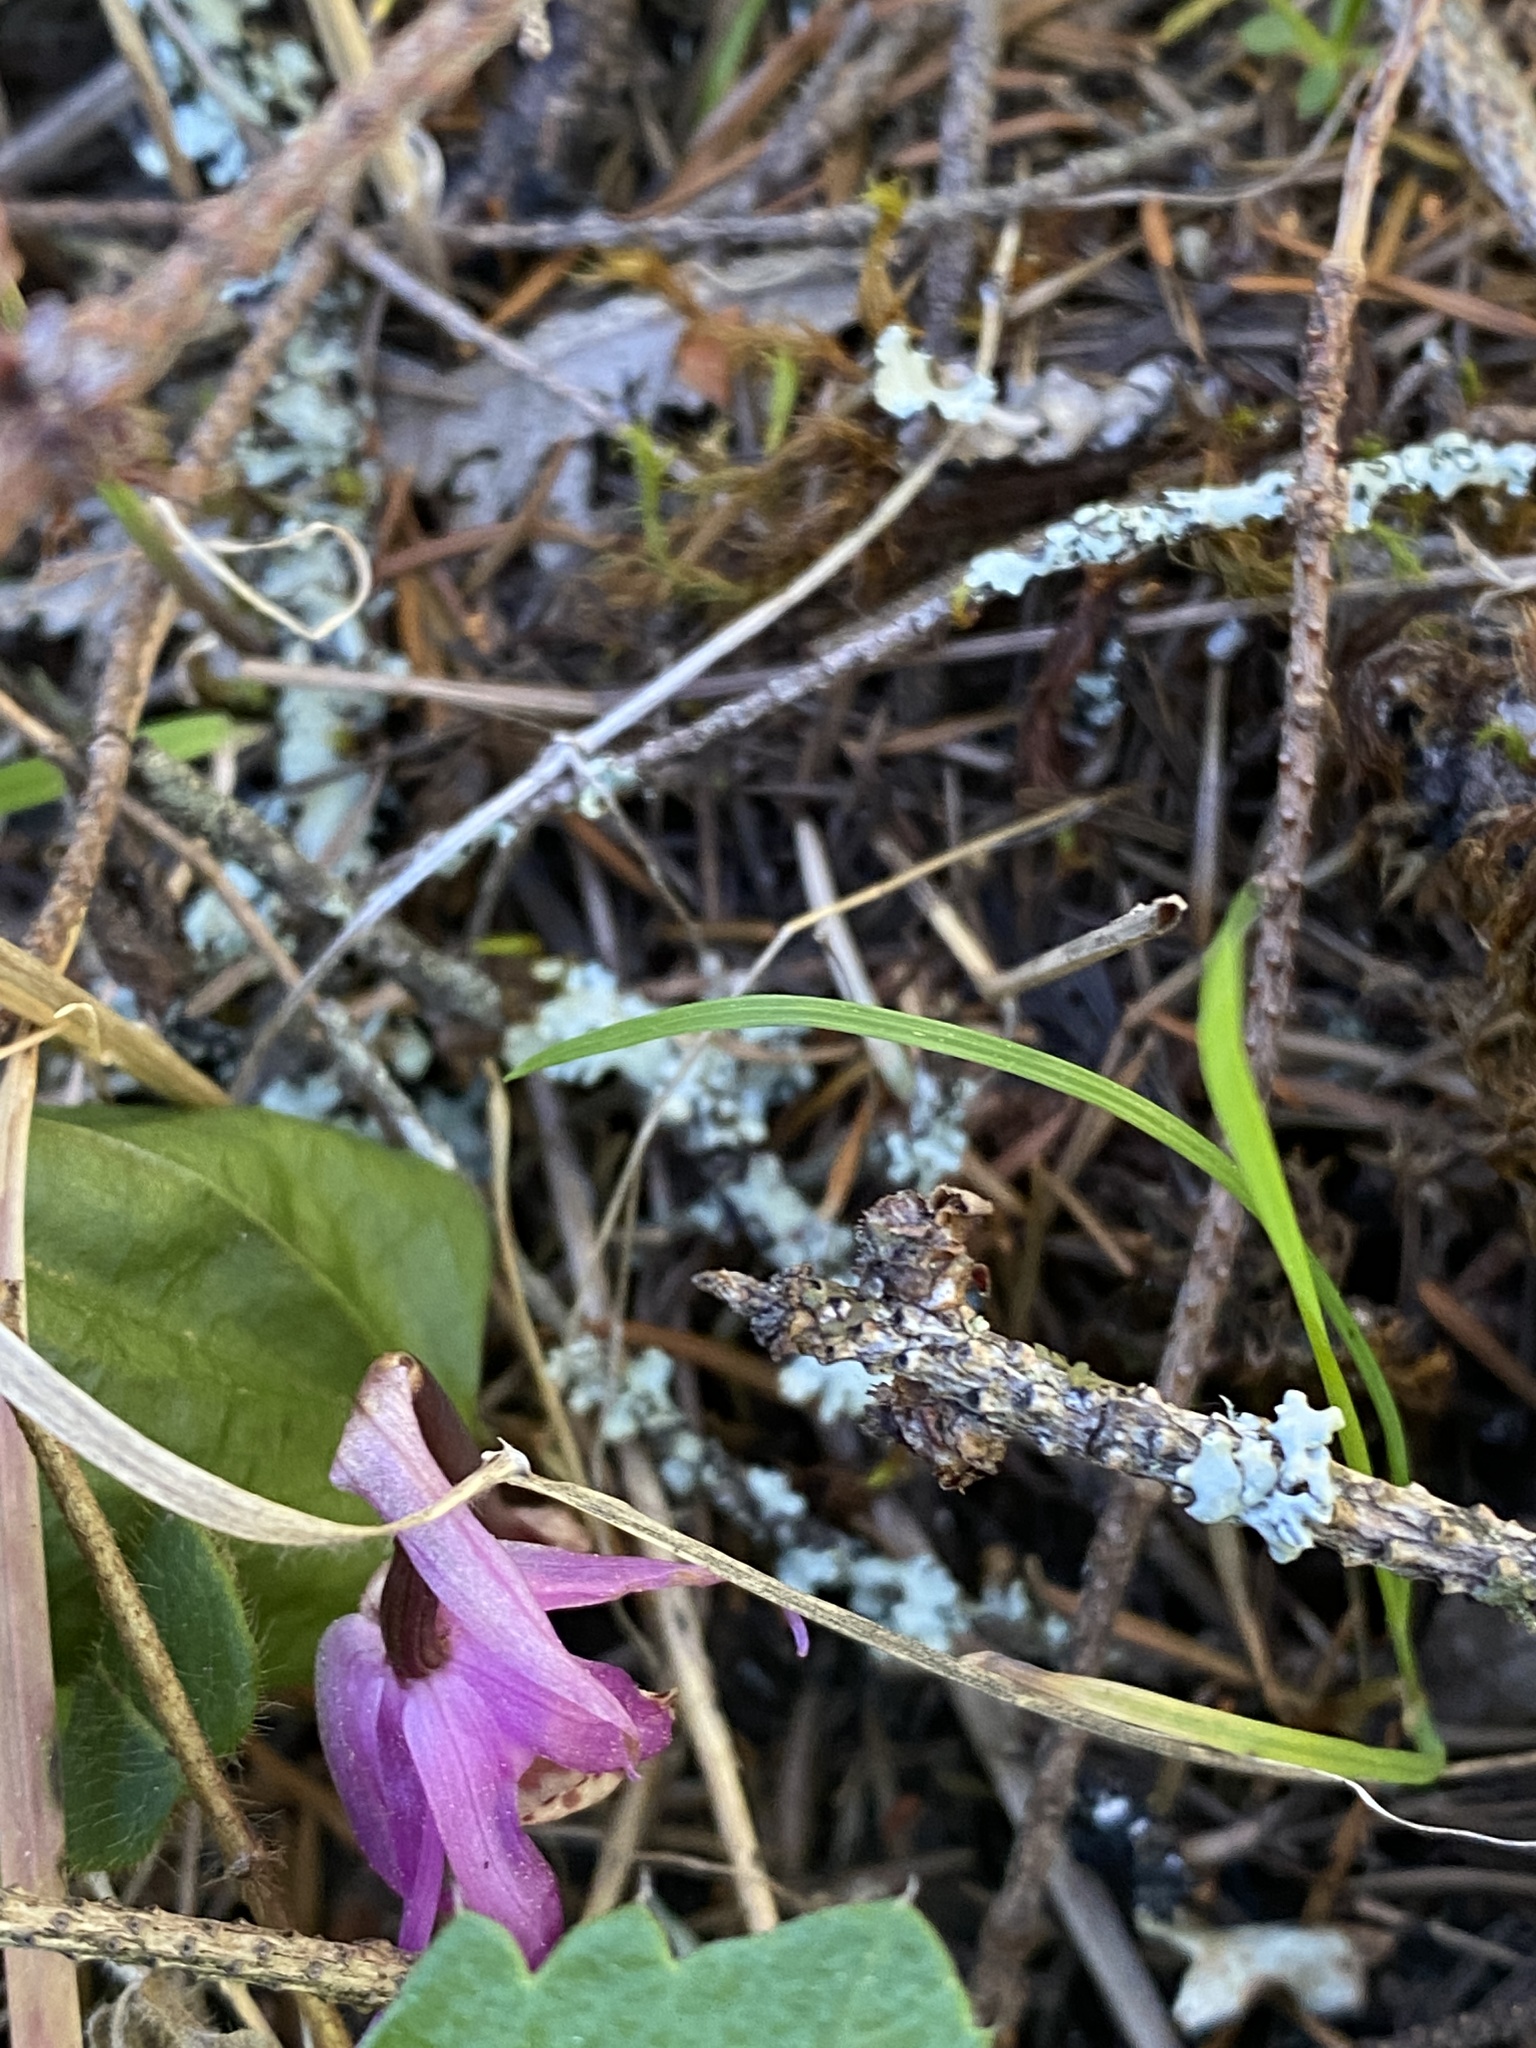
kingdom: Plantae
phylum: Tracheophyta
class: Liliopsida
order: Asparagales
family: Orchidaceae
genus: Calypso
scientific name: Calypso bulbosa
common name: Calypso
